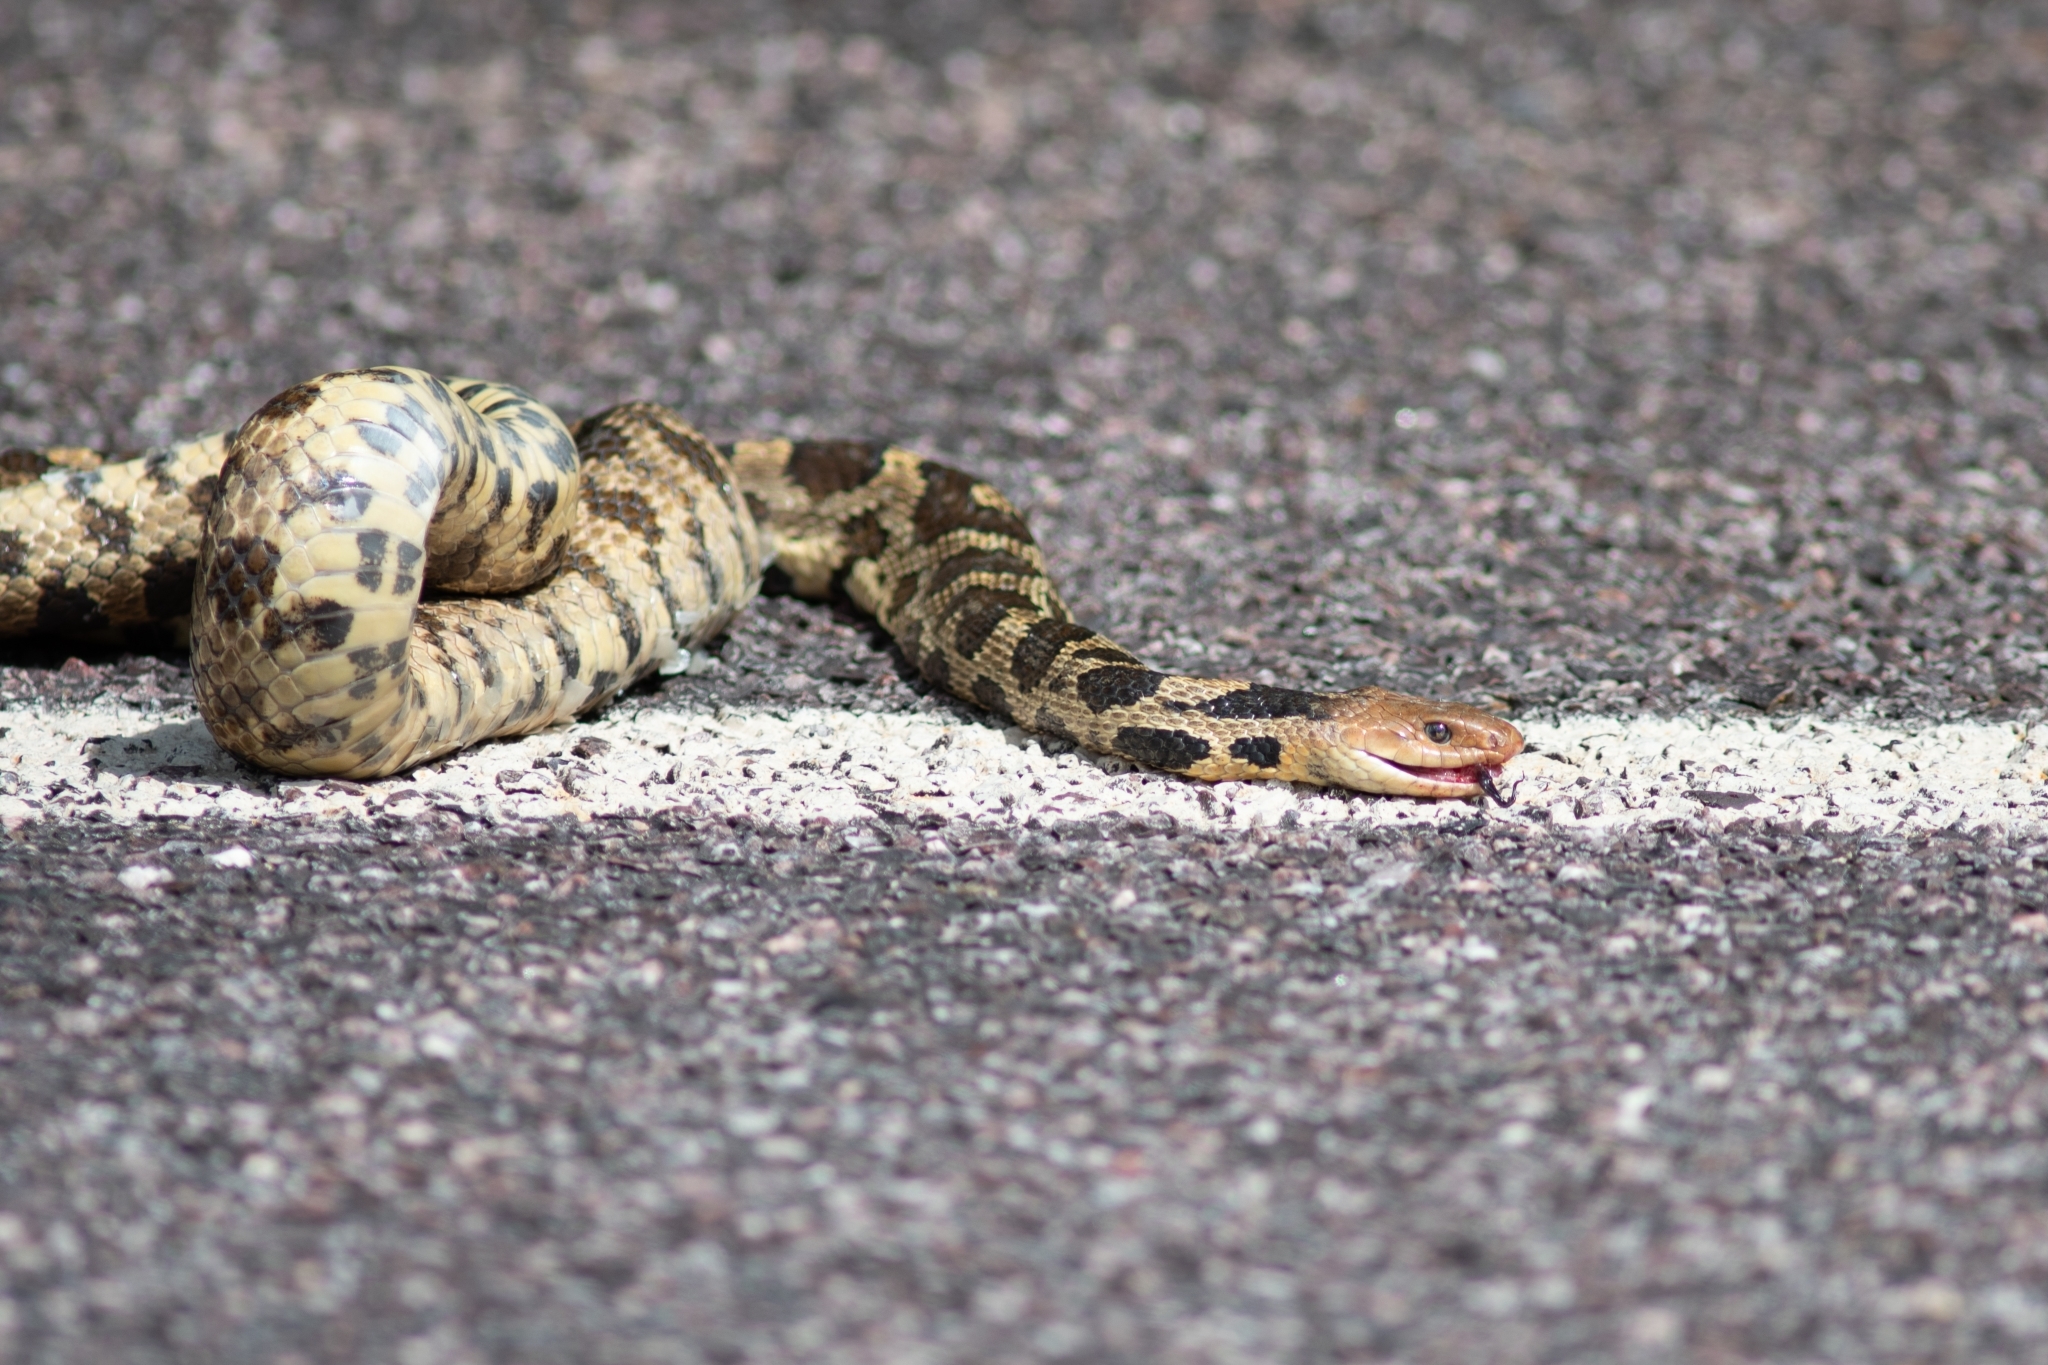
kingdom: Animalia
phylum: Chordata
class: Squamata
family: Colubridae
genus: Pantherophis
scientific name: Pantherophis vulpinus
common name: Eastern fox snake
